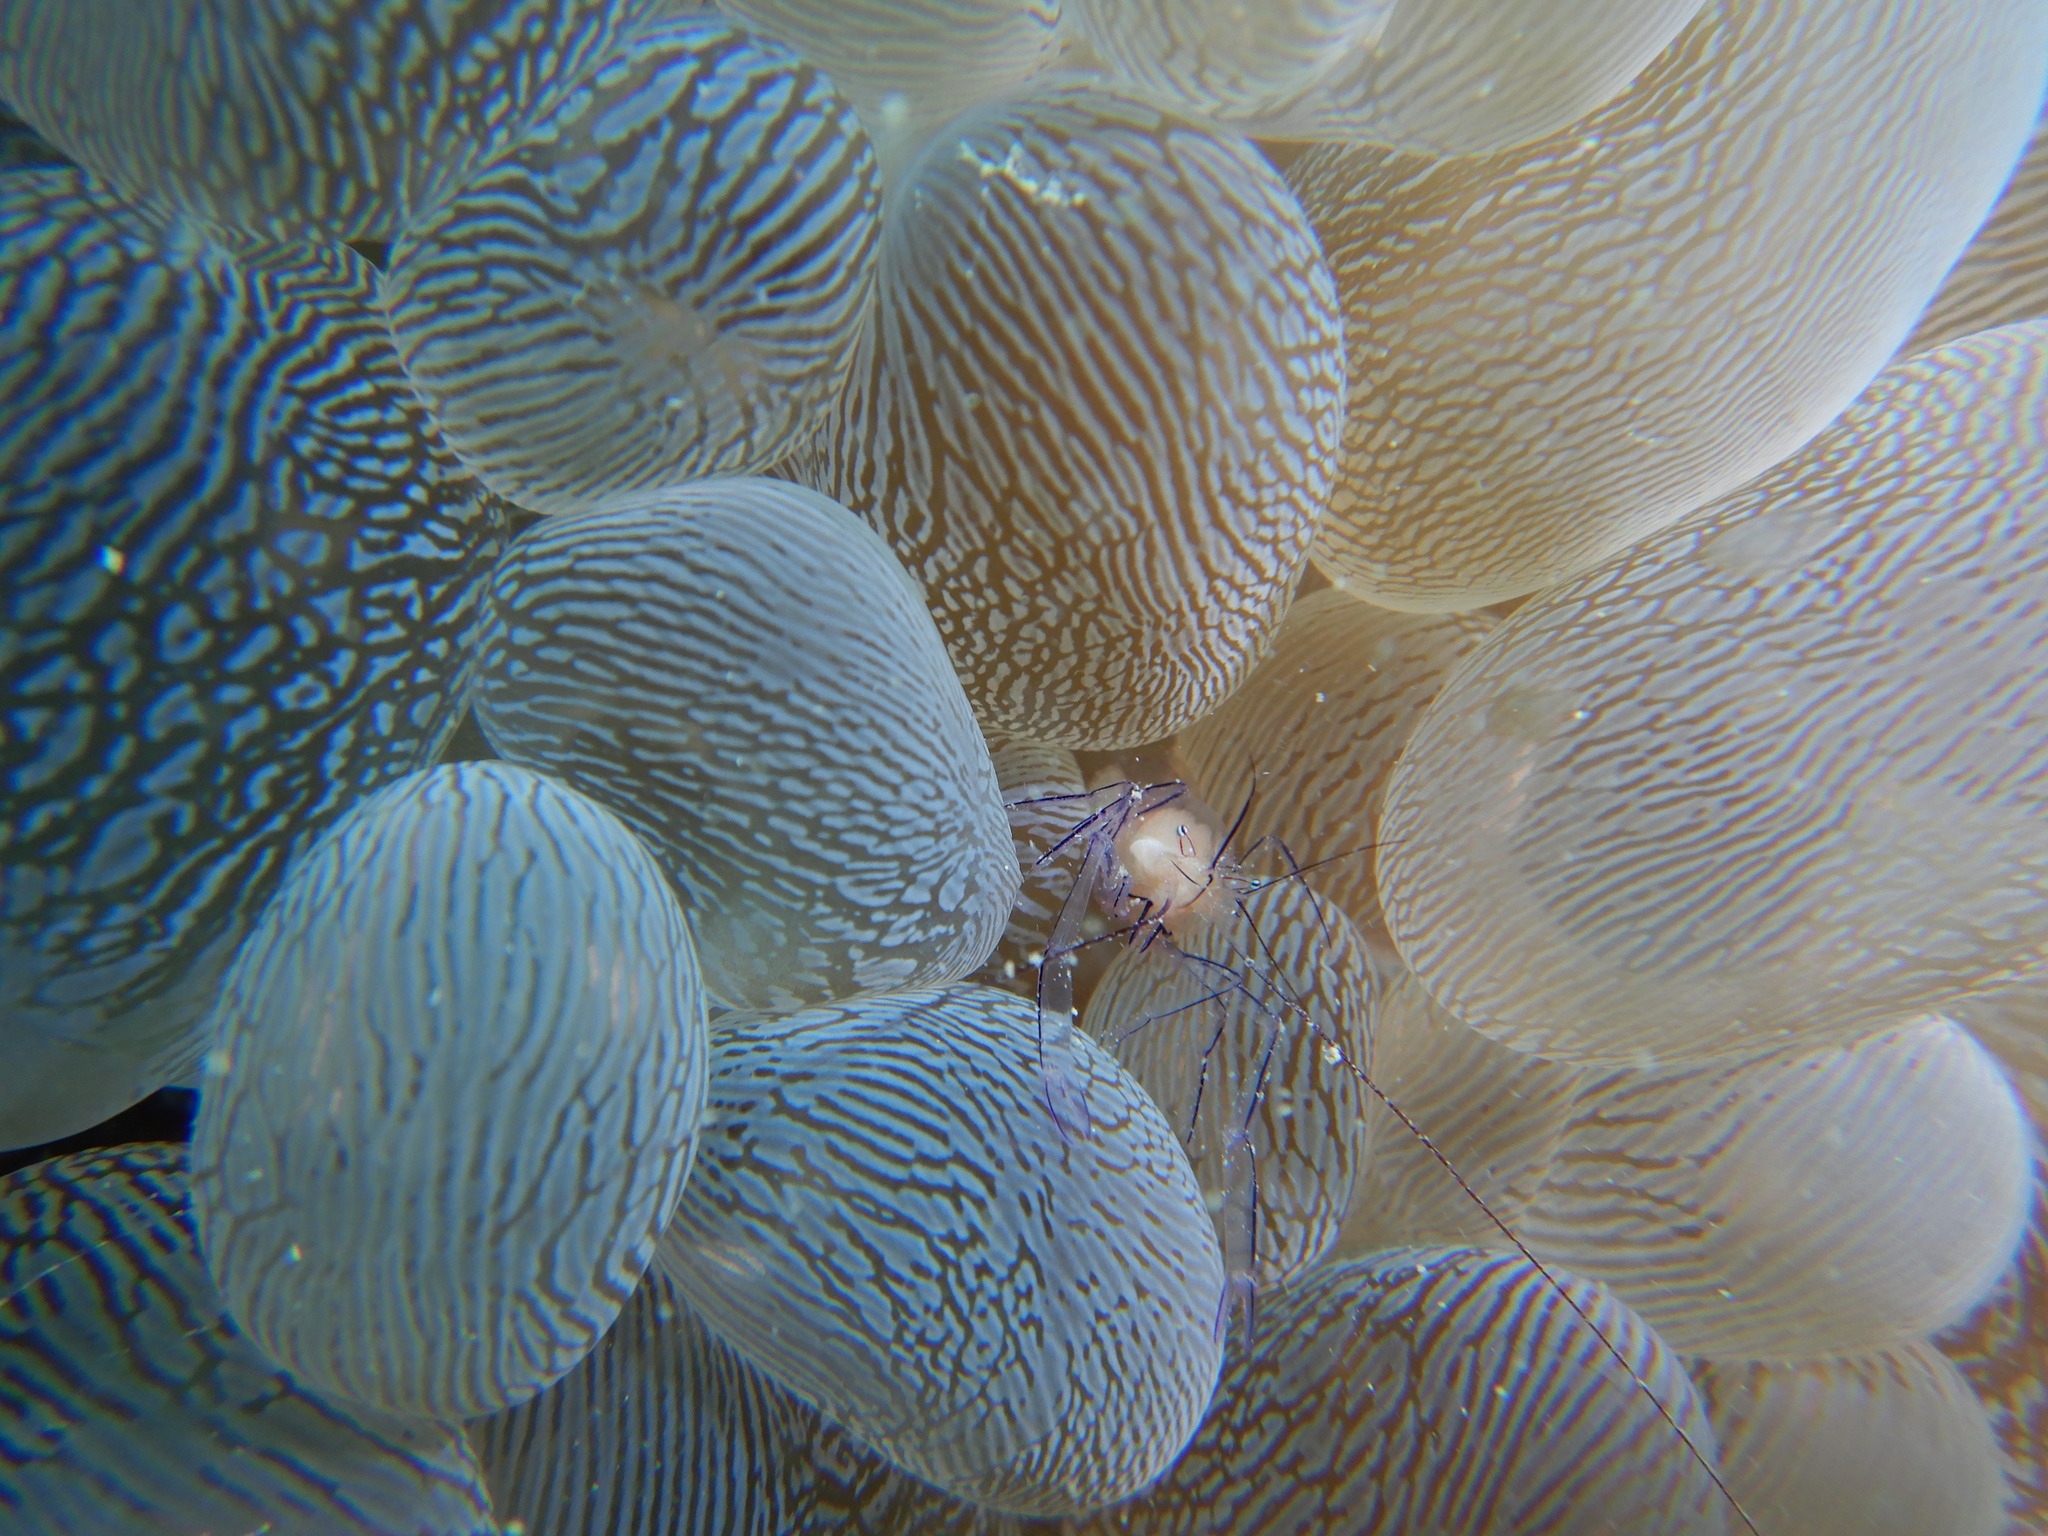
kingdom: Animalia
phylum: Arthropoda
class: Malacostraca
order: Decapoda
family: Palaemonidae
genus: Vir
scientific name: Vir philippinensis
